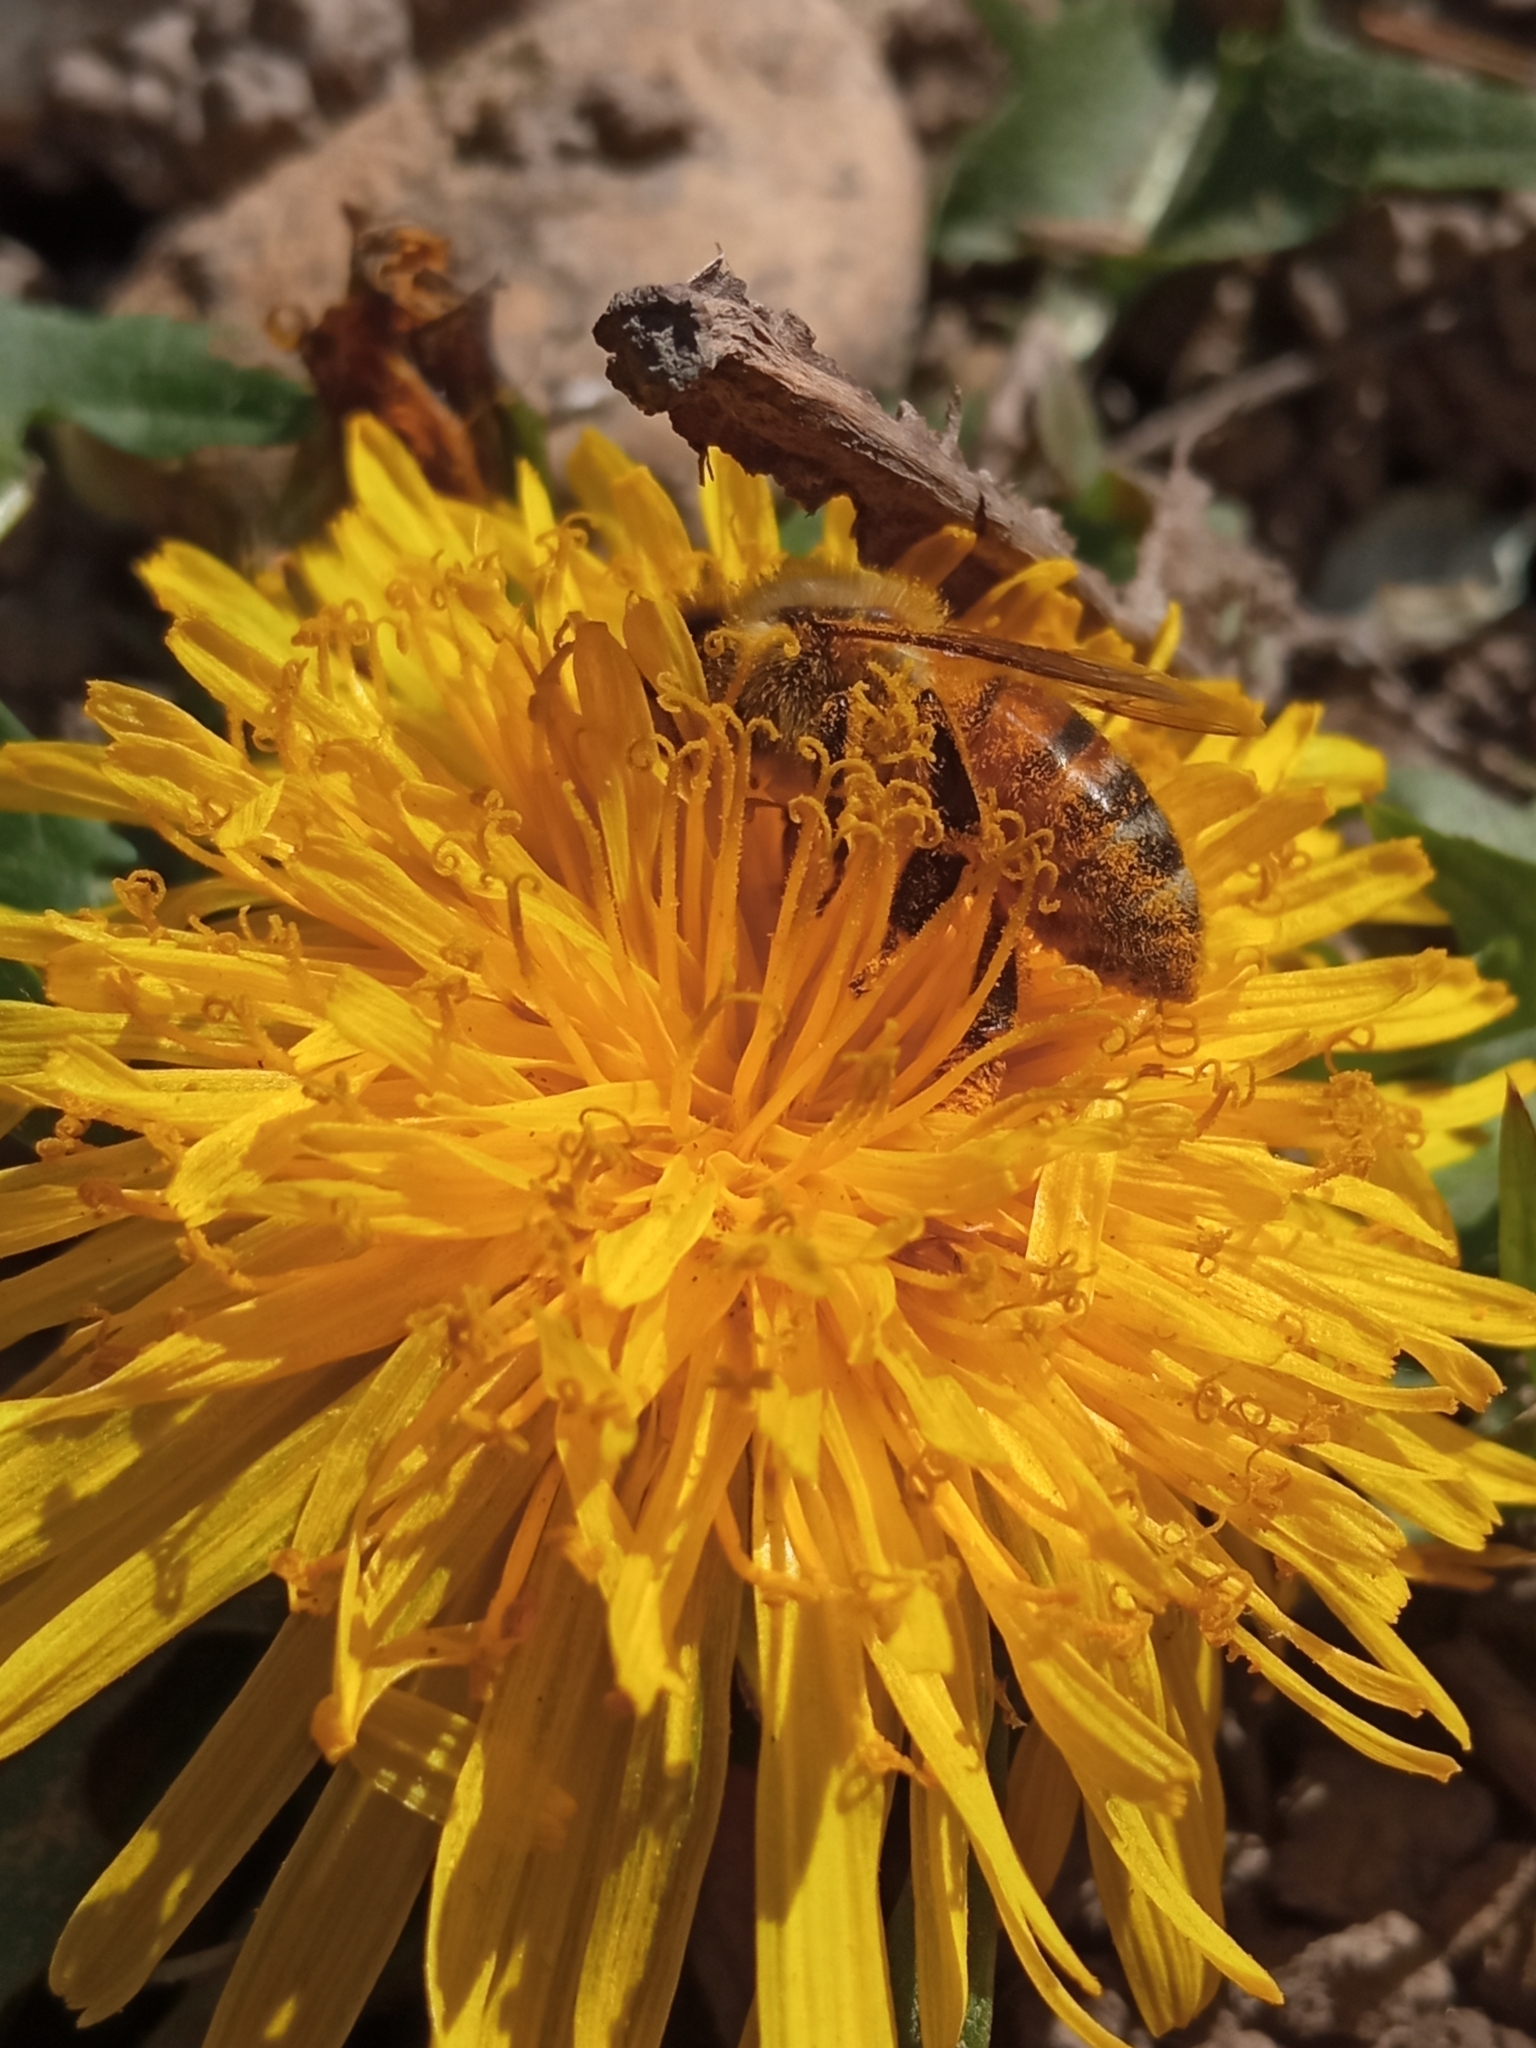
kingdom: Animalia
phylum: Arthropoda
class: Insecta
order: Hymenoptera
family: Apidae
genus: Apis
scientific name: Apis mellifera
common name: Honey bee
